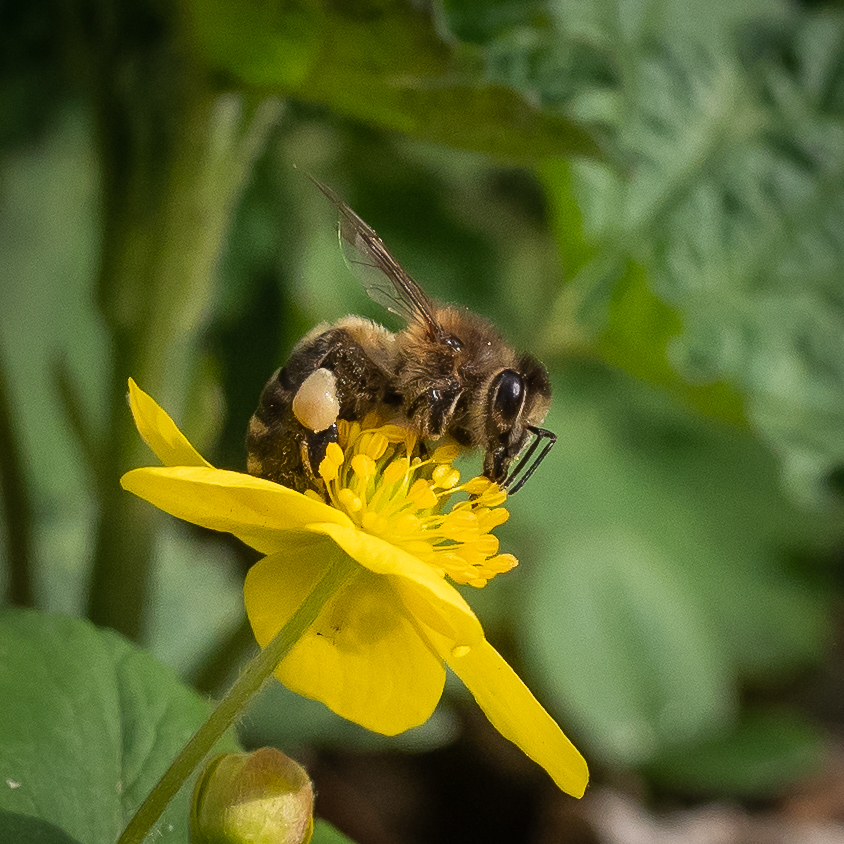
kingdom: Animalia
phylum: Arthropoda
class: Insecta
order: Hymenoptera
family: Apidae
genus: Apis
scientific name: Apis mellifera
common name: Honey bee
